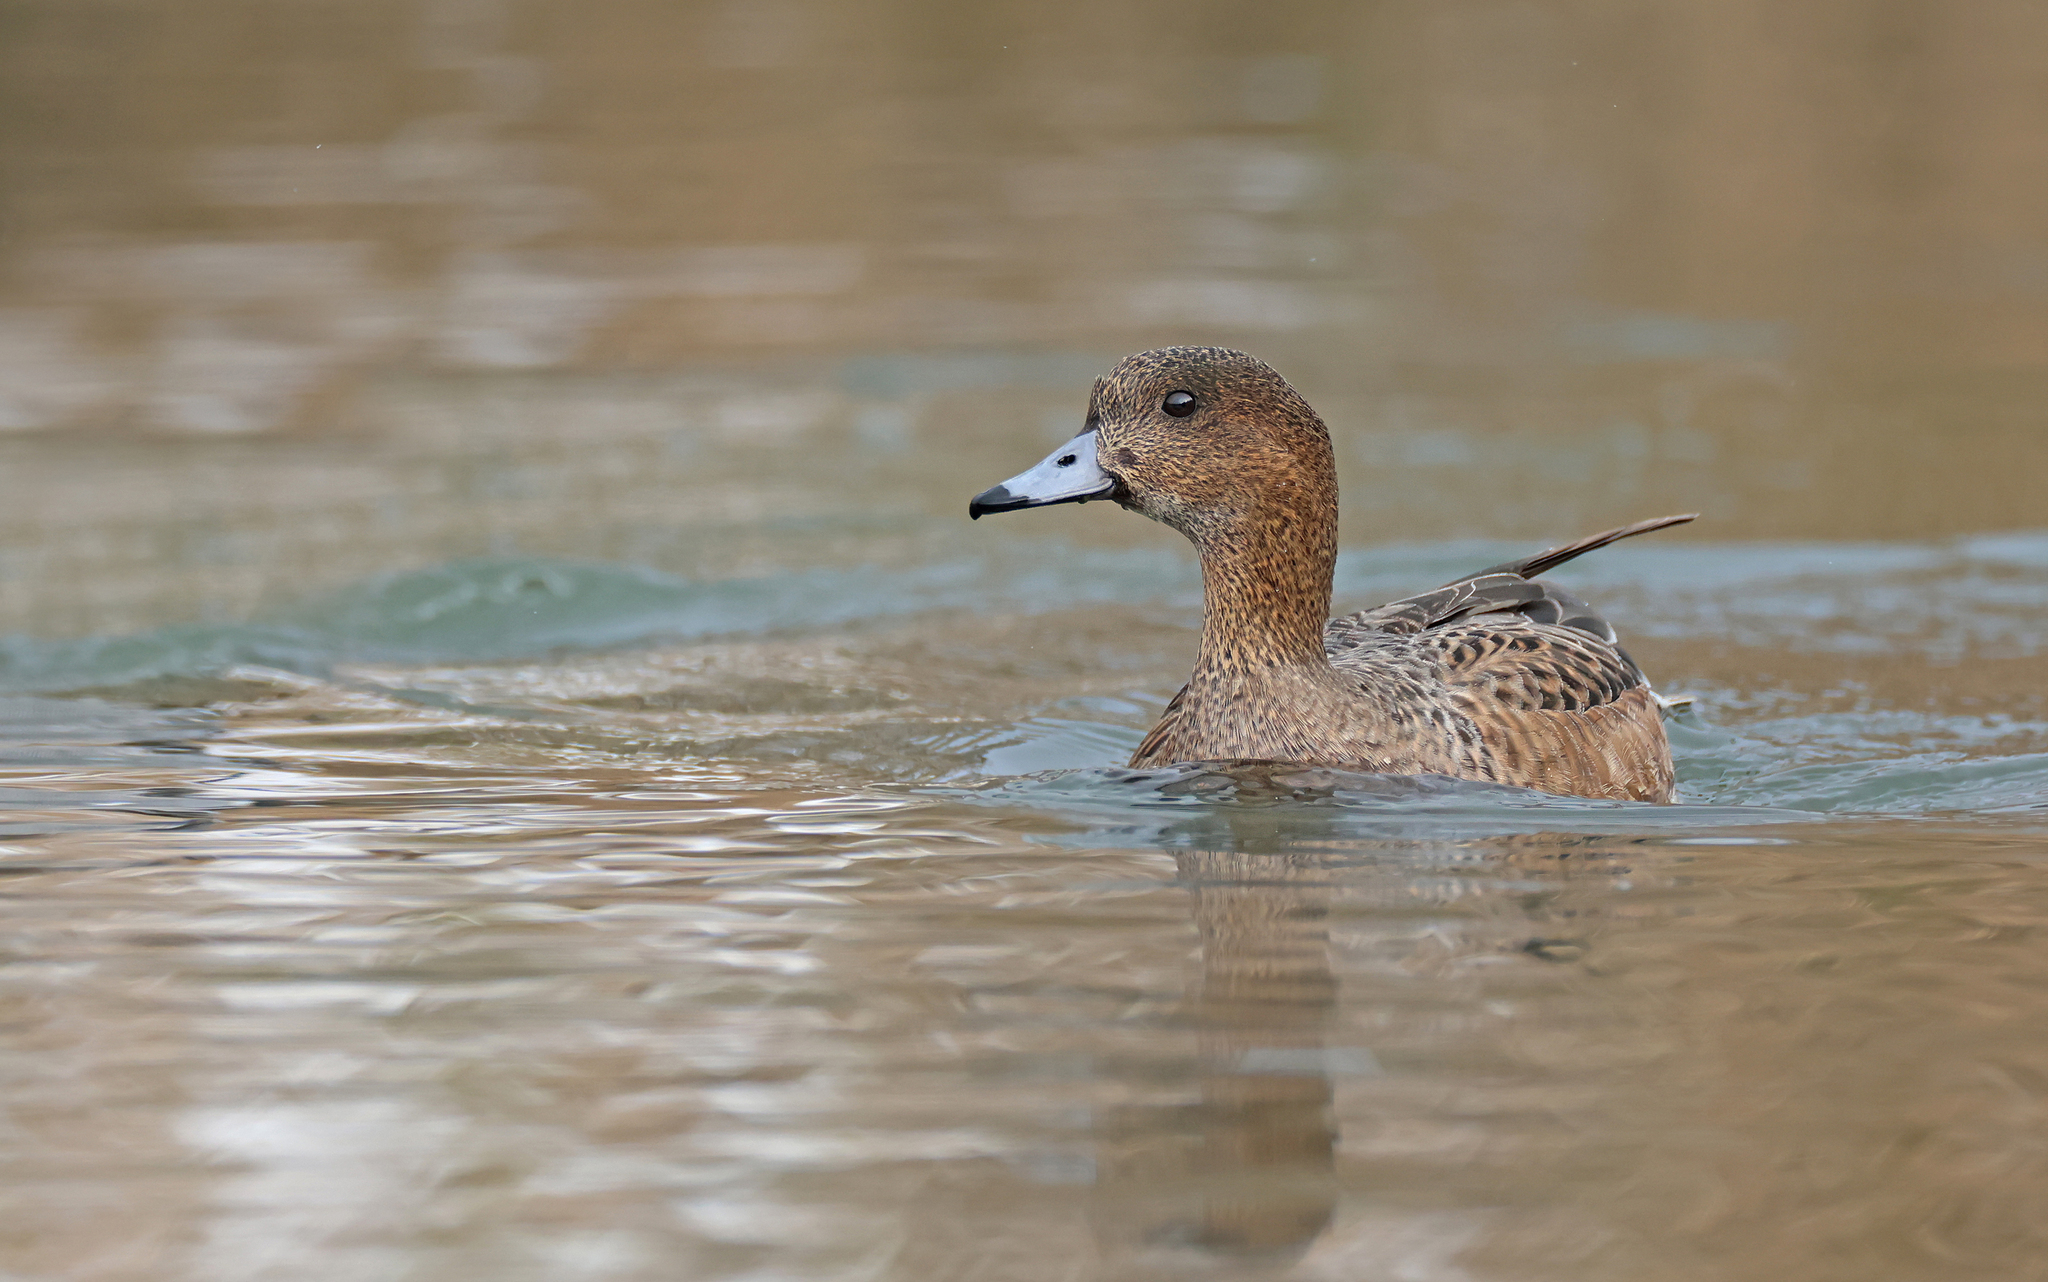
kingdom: Animalia
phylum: Chordata
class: Aves
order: Anseriformes
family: Anatidae
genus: Mareca
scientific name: Mareca penelope
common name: Eurasian wigeon
